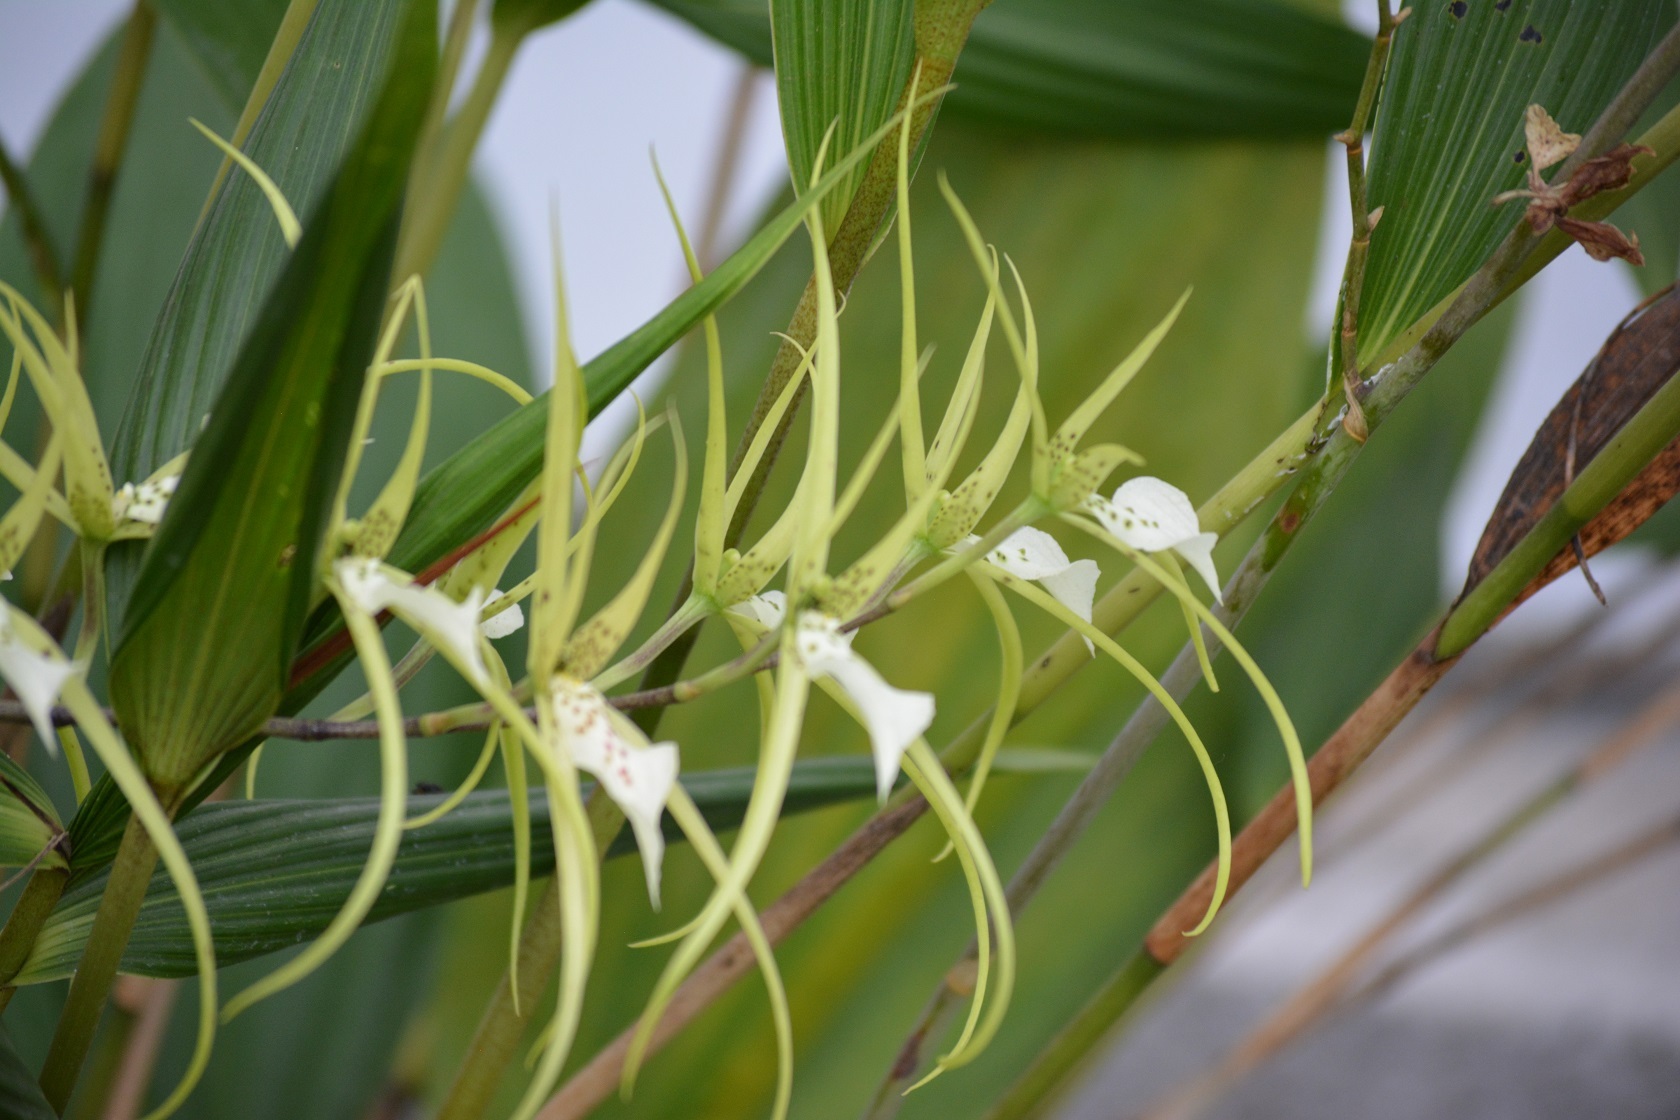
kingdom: Plantae
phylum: Tracheophyta
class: Liliopsida
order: Asparagales
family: Orchidaceae
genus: Brassia
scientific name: Brassia verrucosa
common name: Warty brassia
